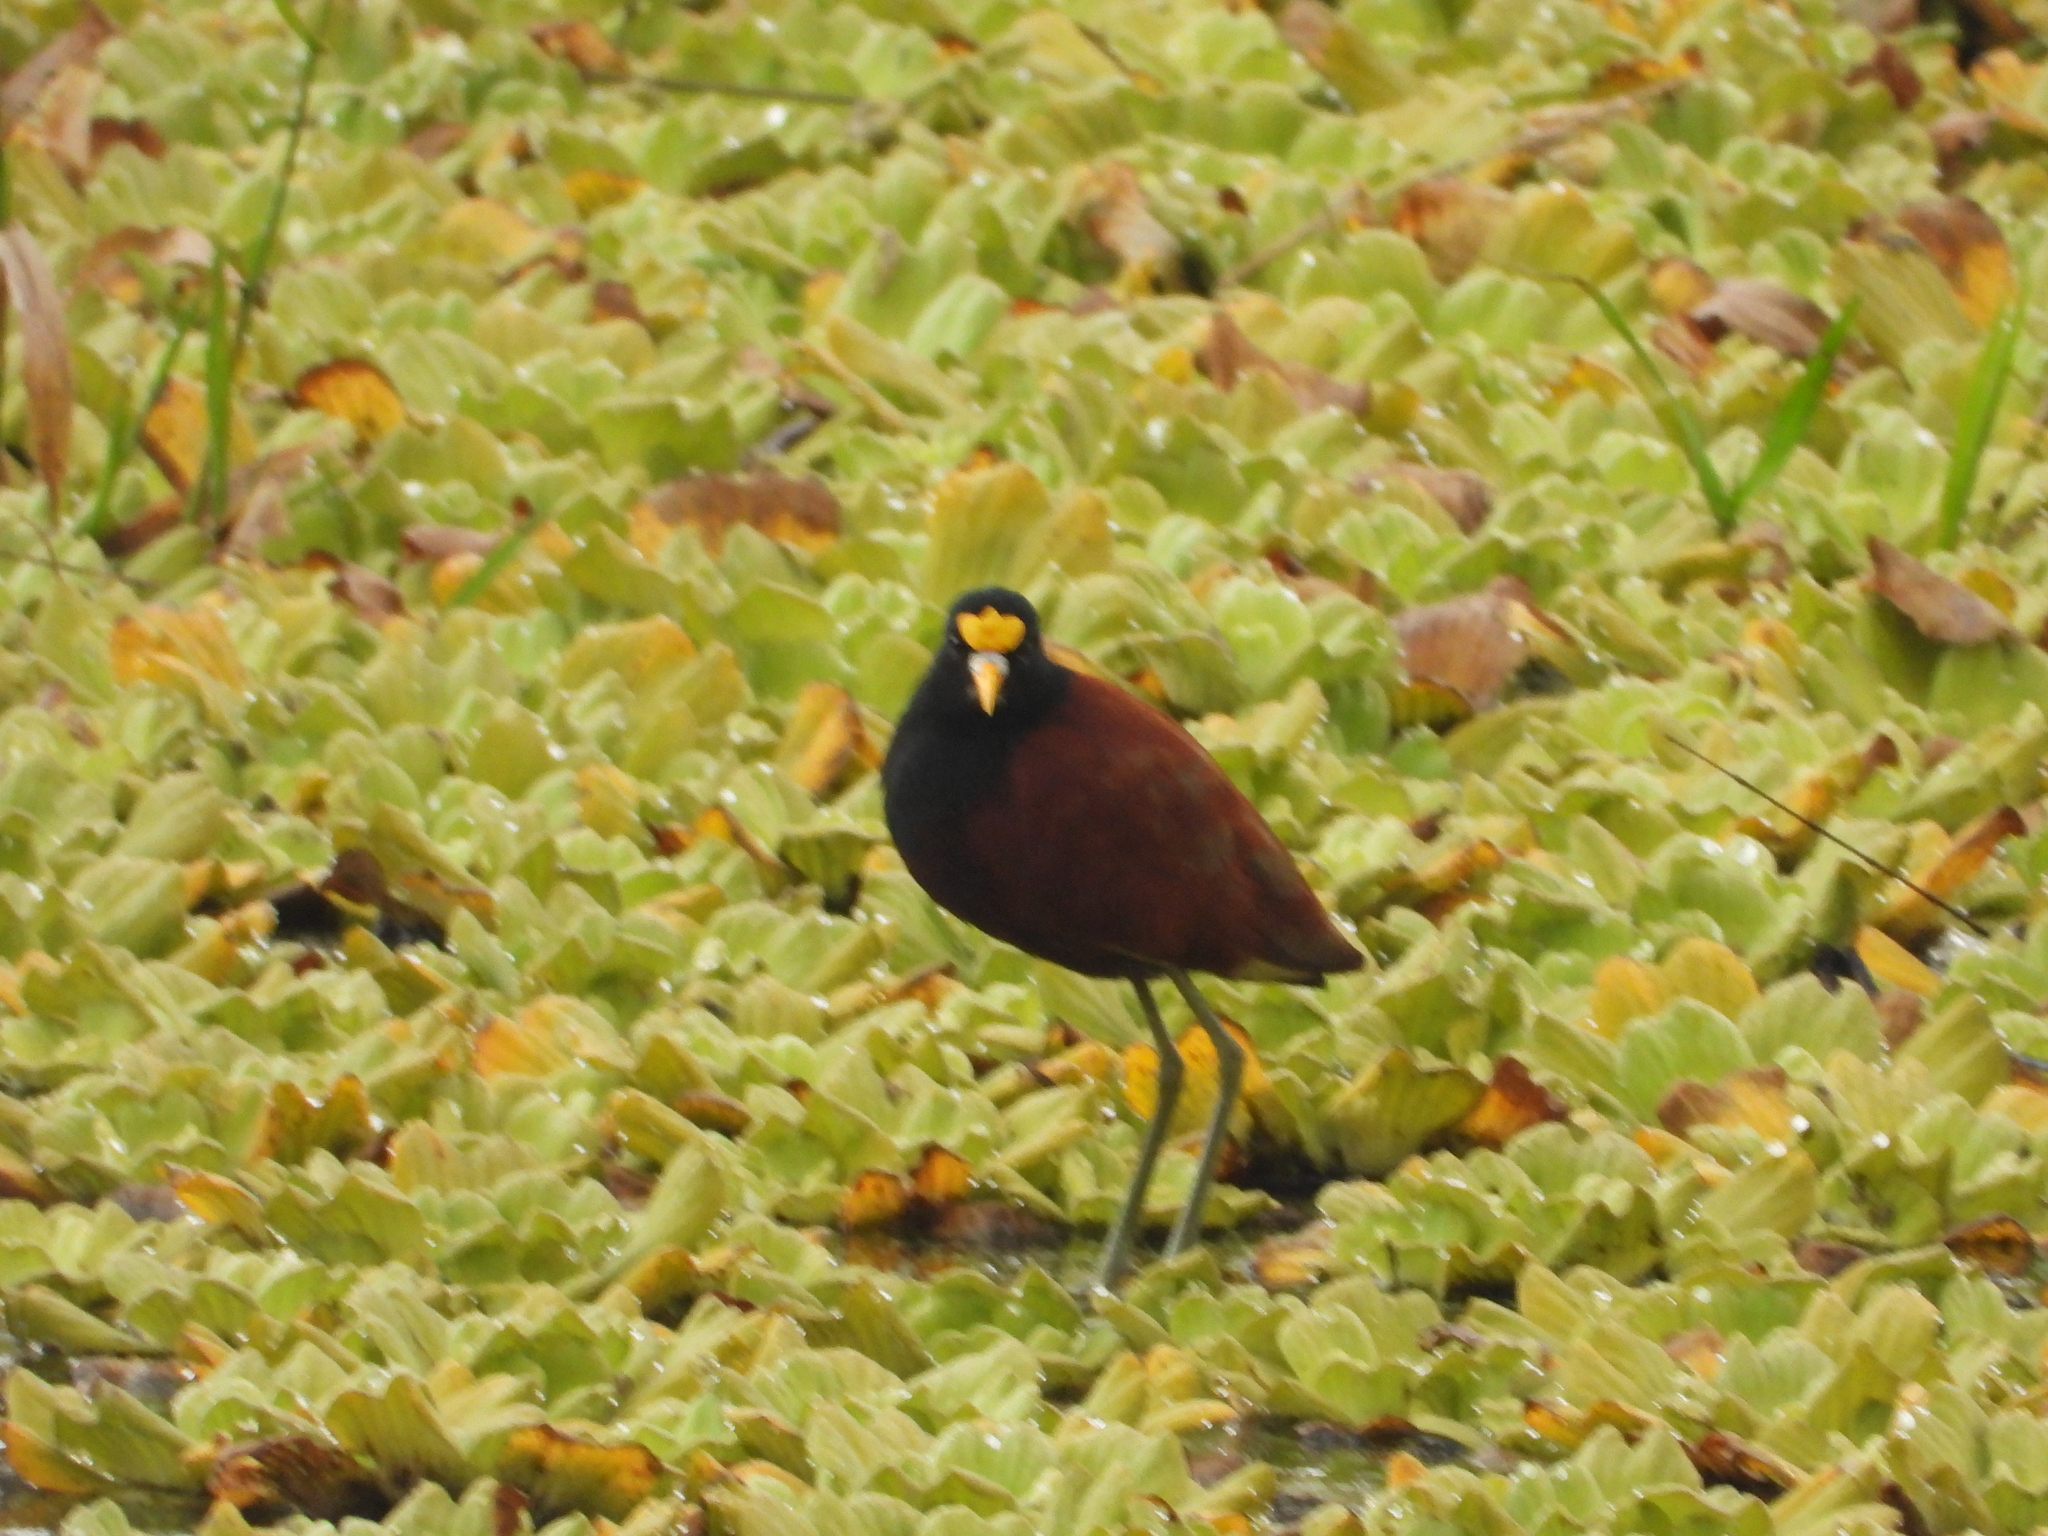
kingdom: Animalia
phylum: Chordata
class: Aves
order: Charadriiformes
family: Jacanidae
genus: Jacana
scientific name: Jacana spinosa
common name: Northern jacana
